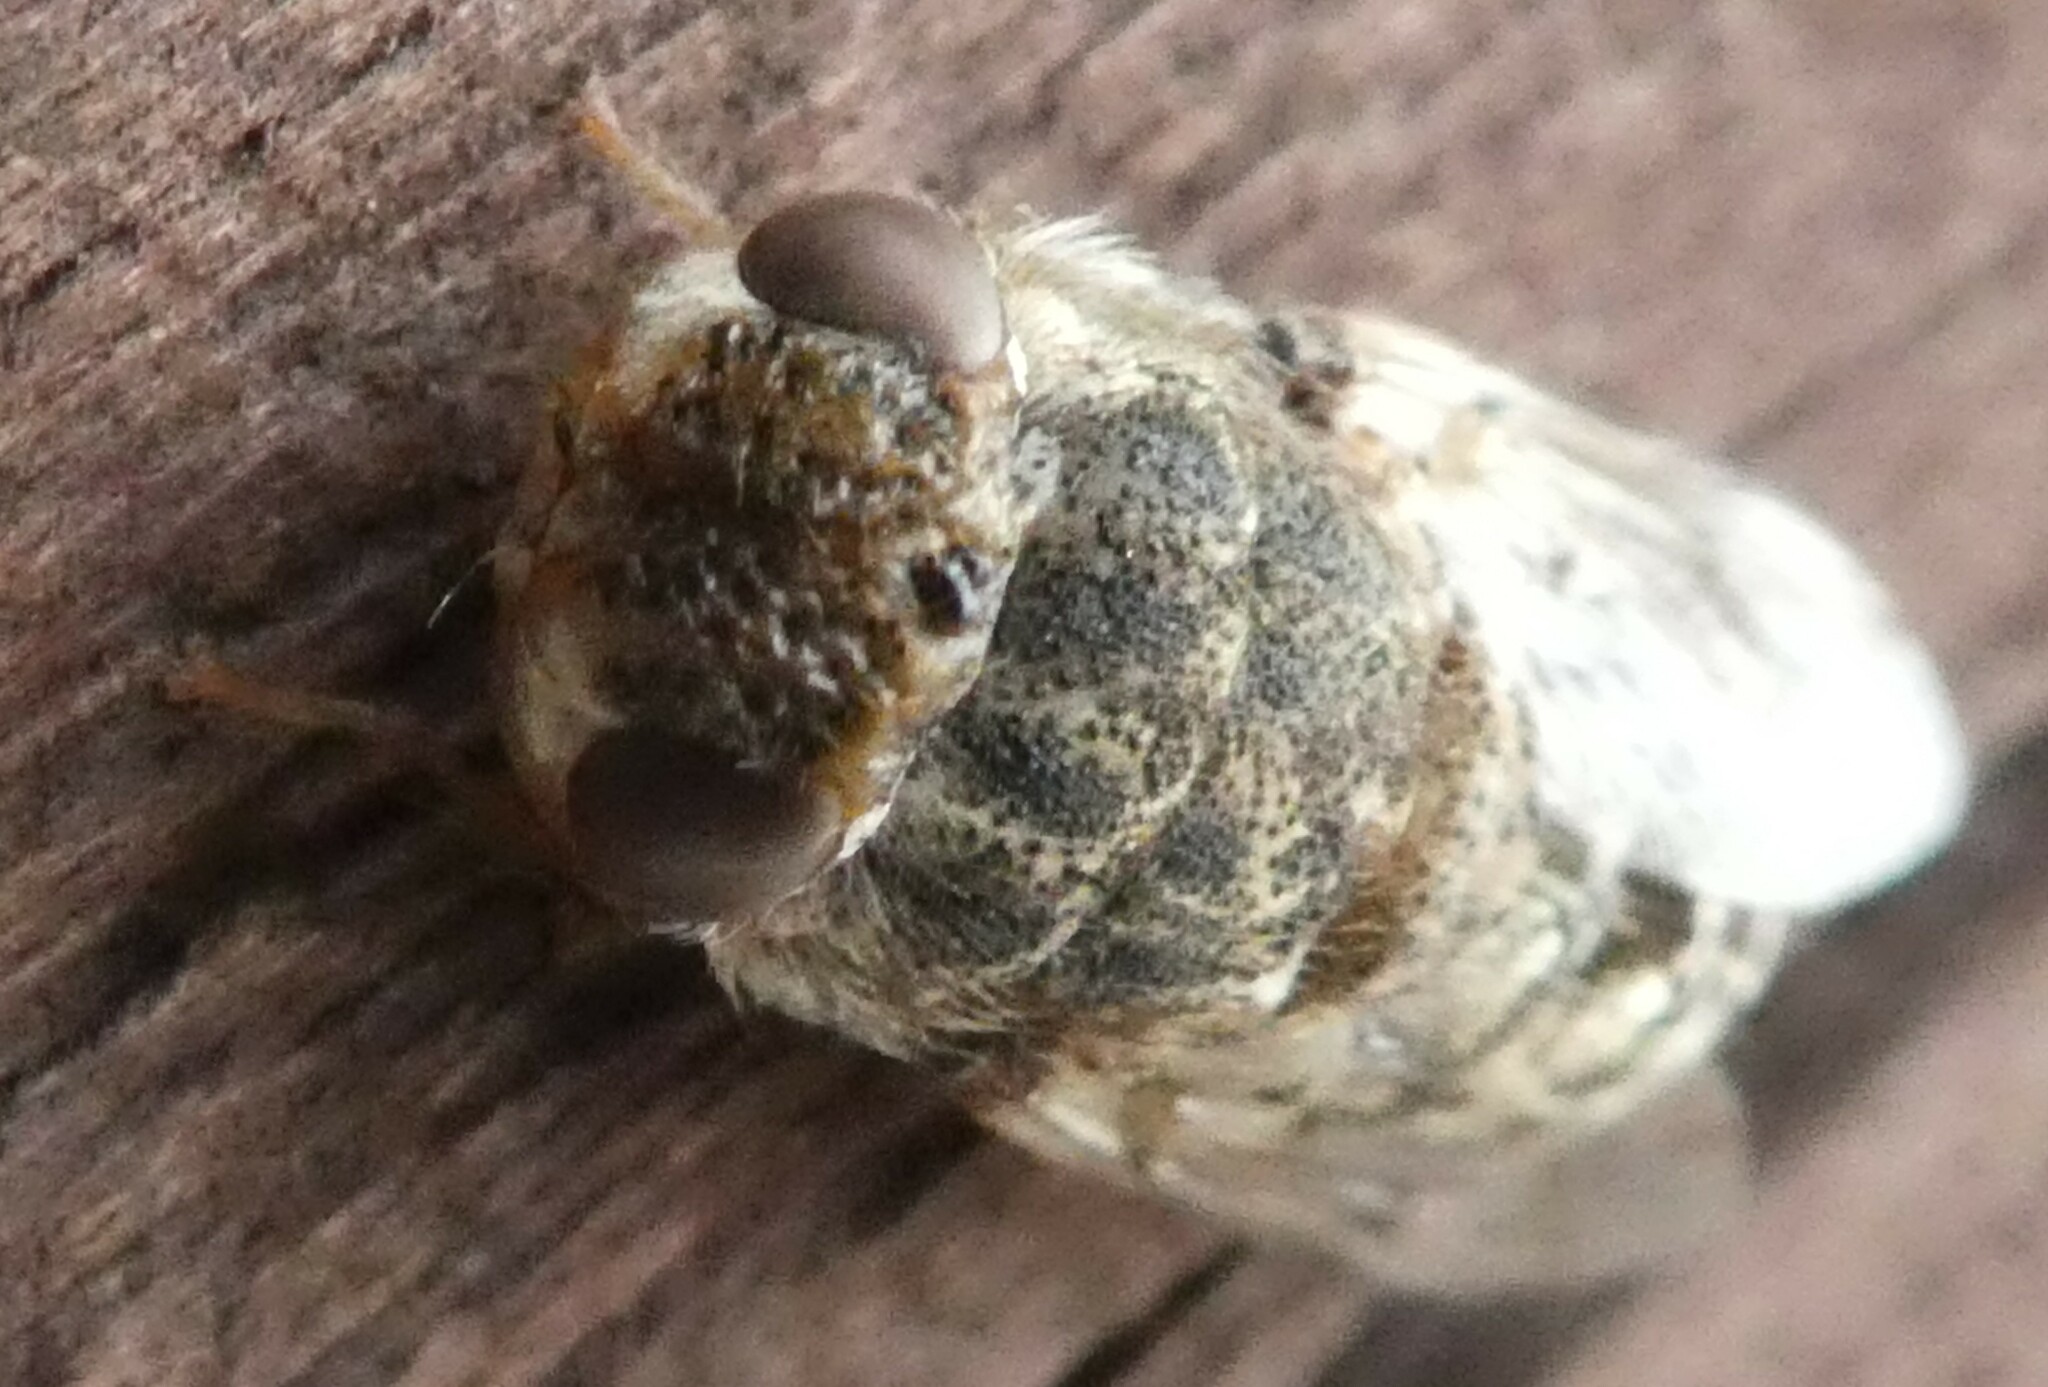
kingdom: Animalia
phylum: Arthropoda
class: Insecta
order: Diptera
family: Oestridae
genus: Oestrus
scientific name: Oestrus ovis
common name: Sheep botfly
